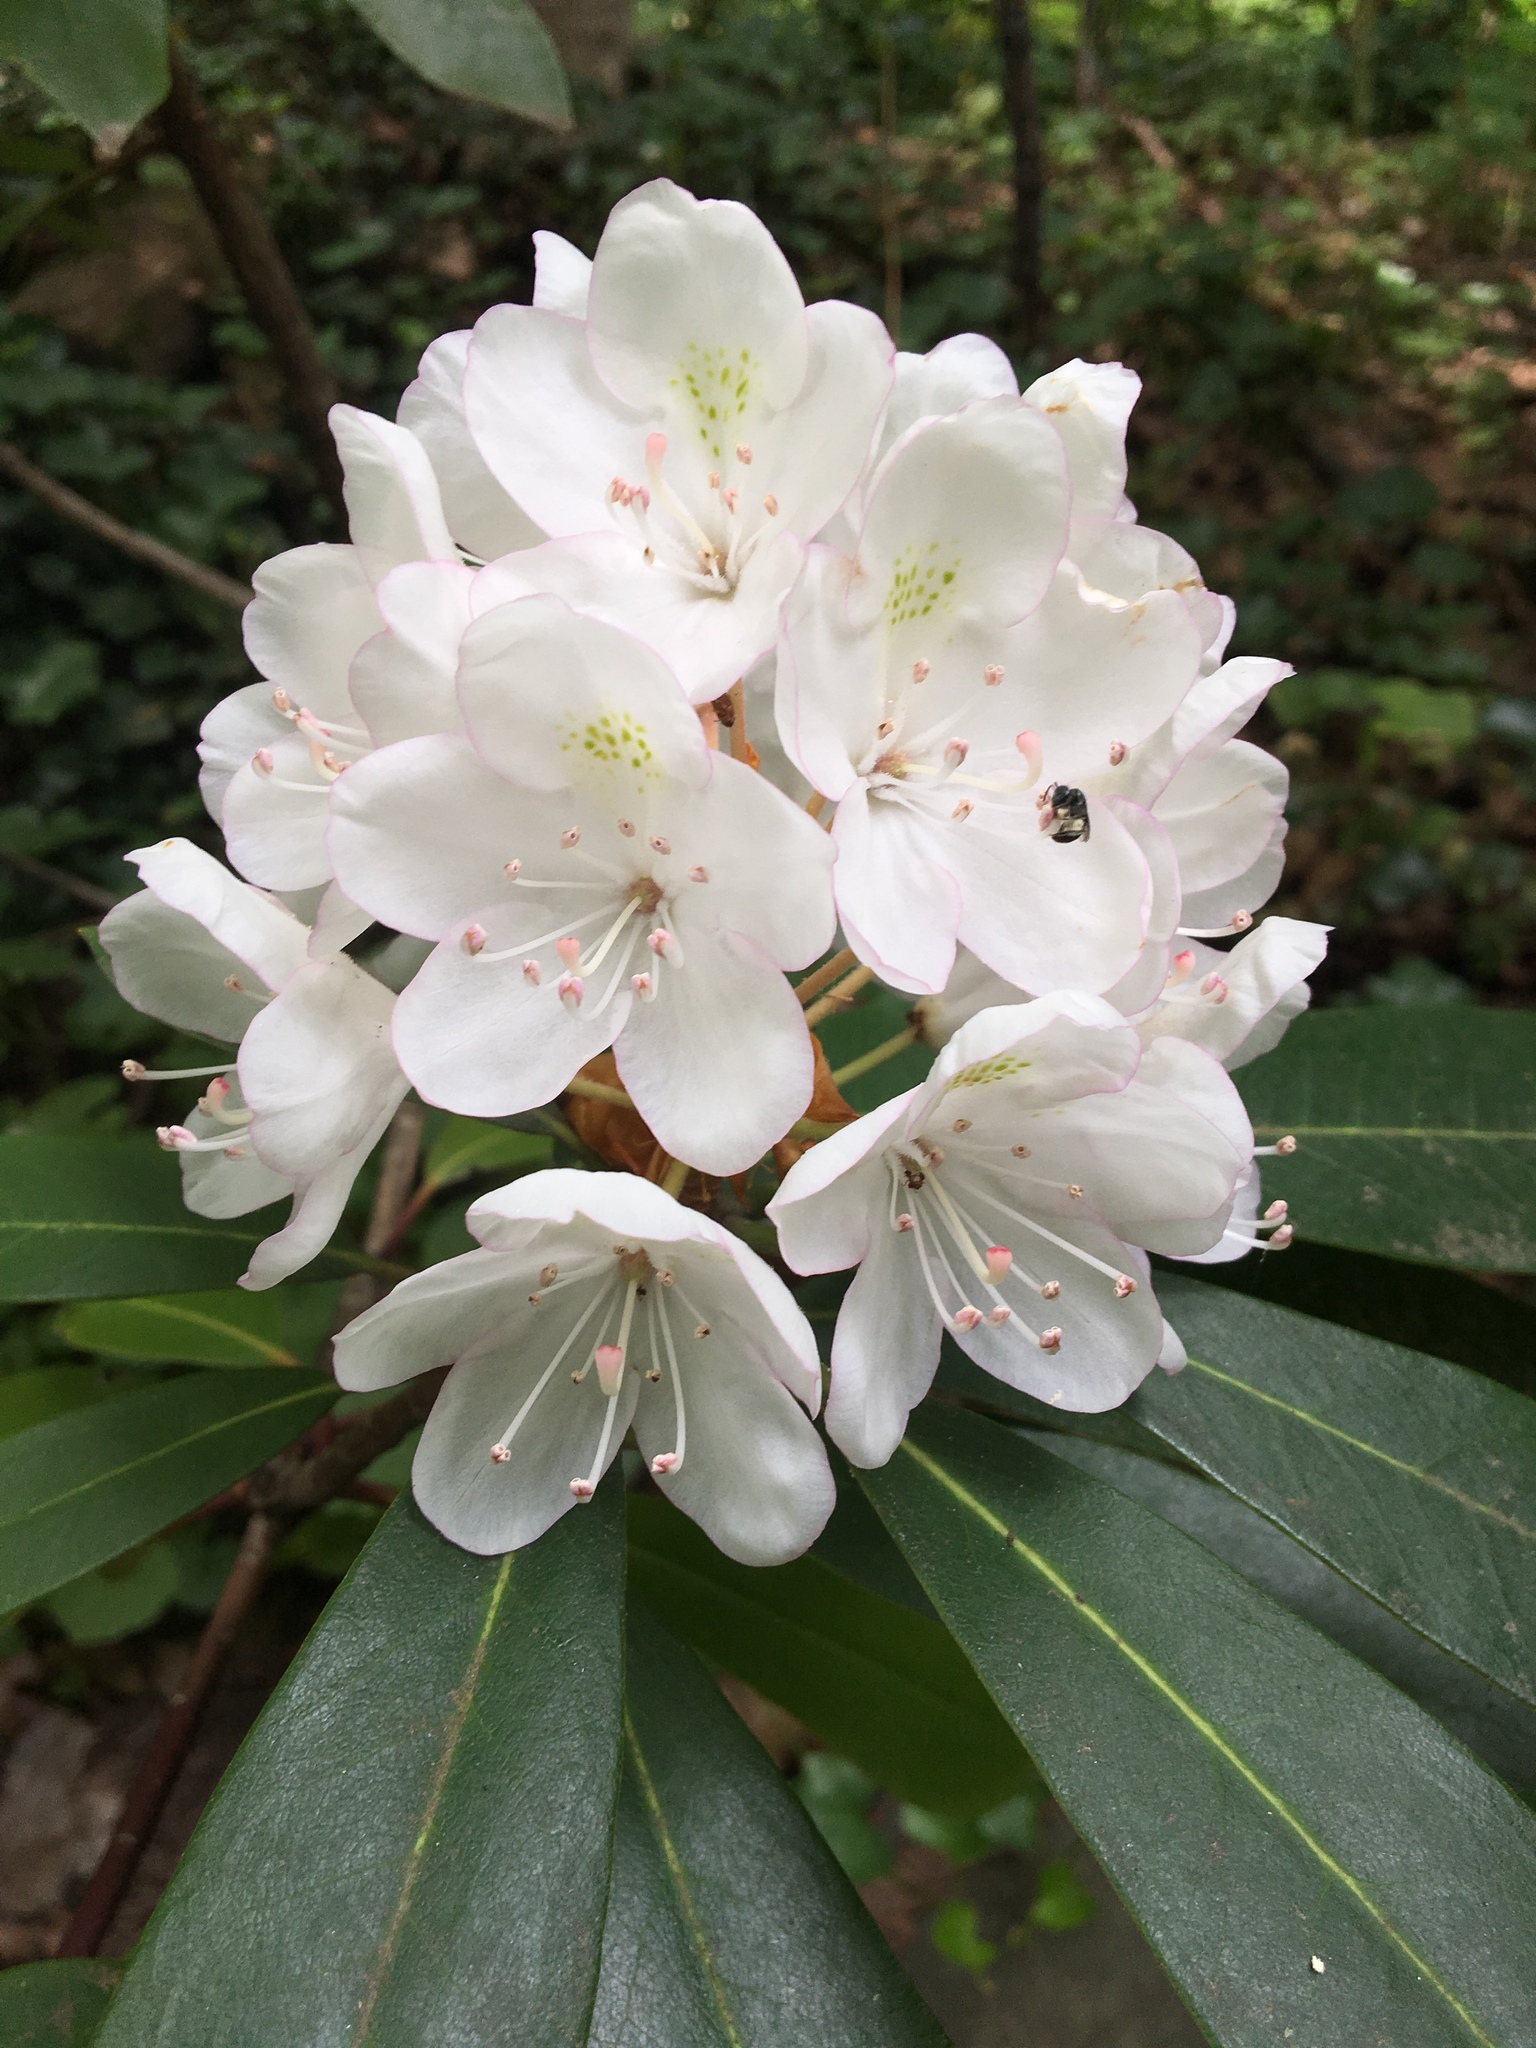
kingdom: Plantae
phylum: Tracheophyta
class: Magnoliopsida
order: Ericales
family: Ericaceae
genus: Rhododendron
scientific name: Rhododendron maximum
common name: Great rhododendron
